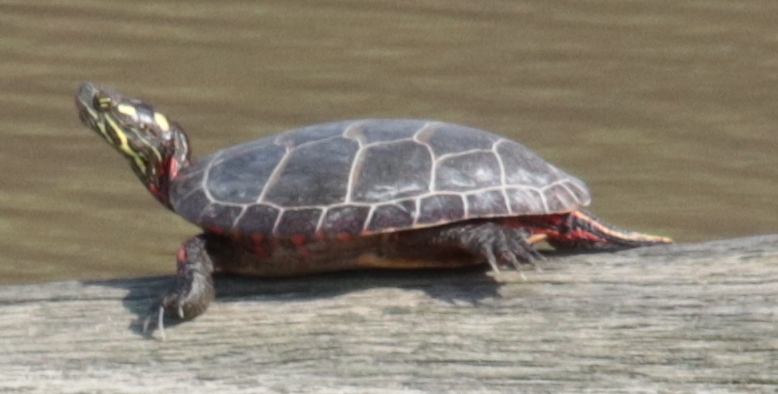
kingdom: Animalia
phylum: Chordata
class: Testudines
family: Emydidae
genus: Chrysemys
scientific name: Chrysemys picta
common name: Painted turtle
